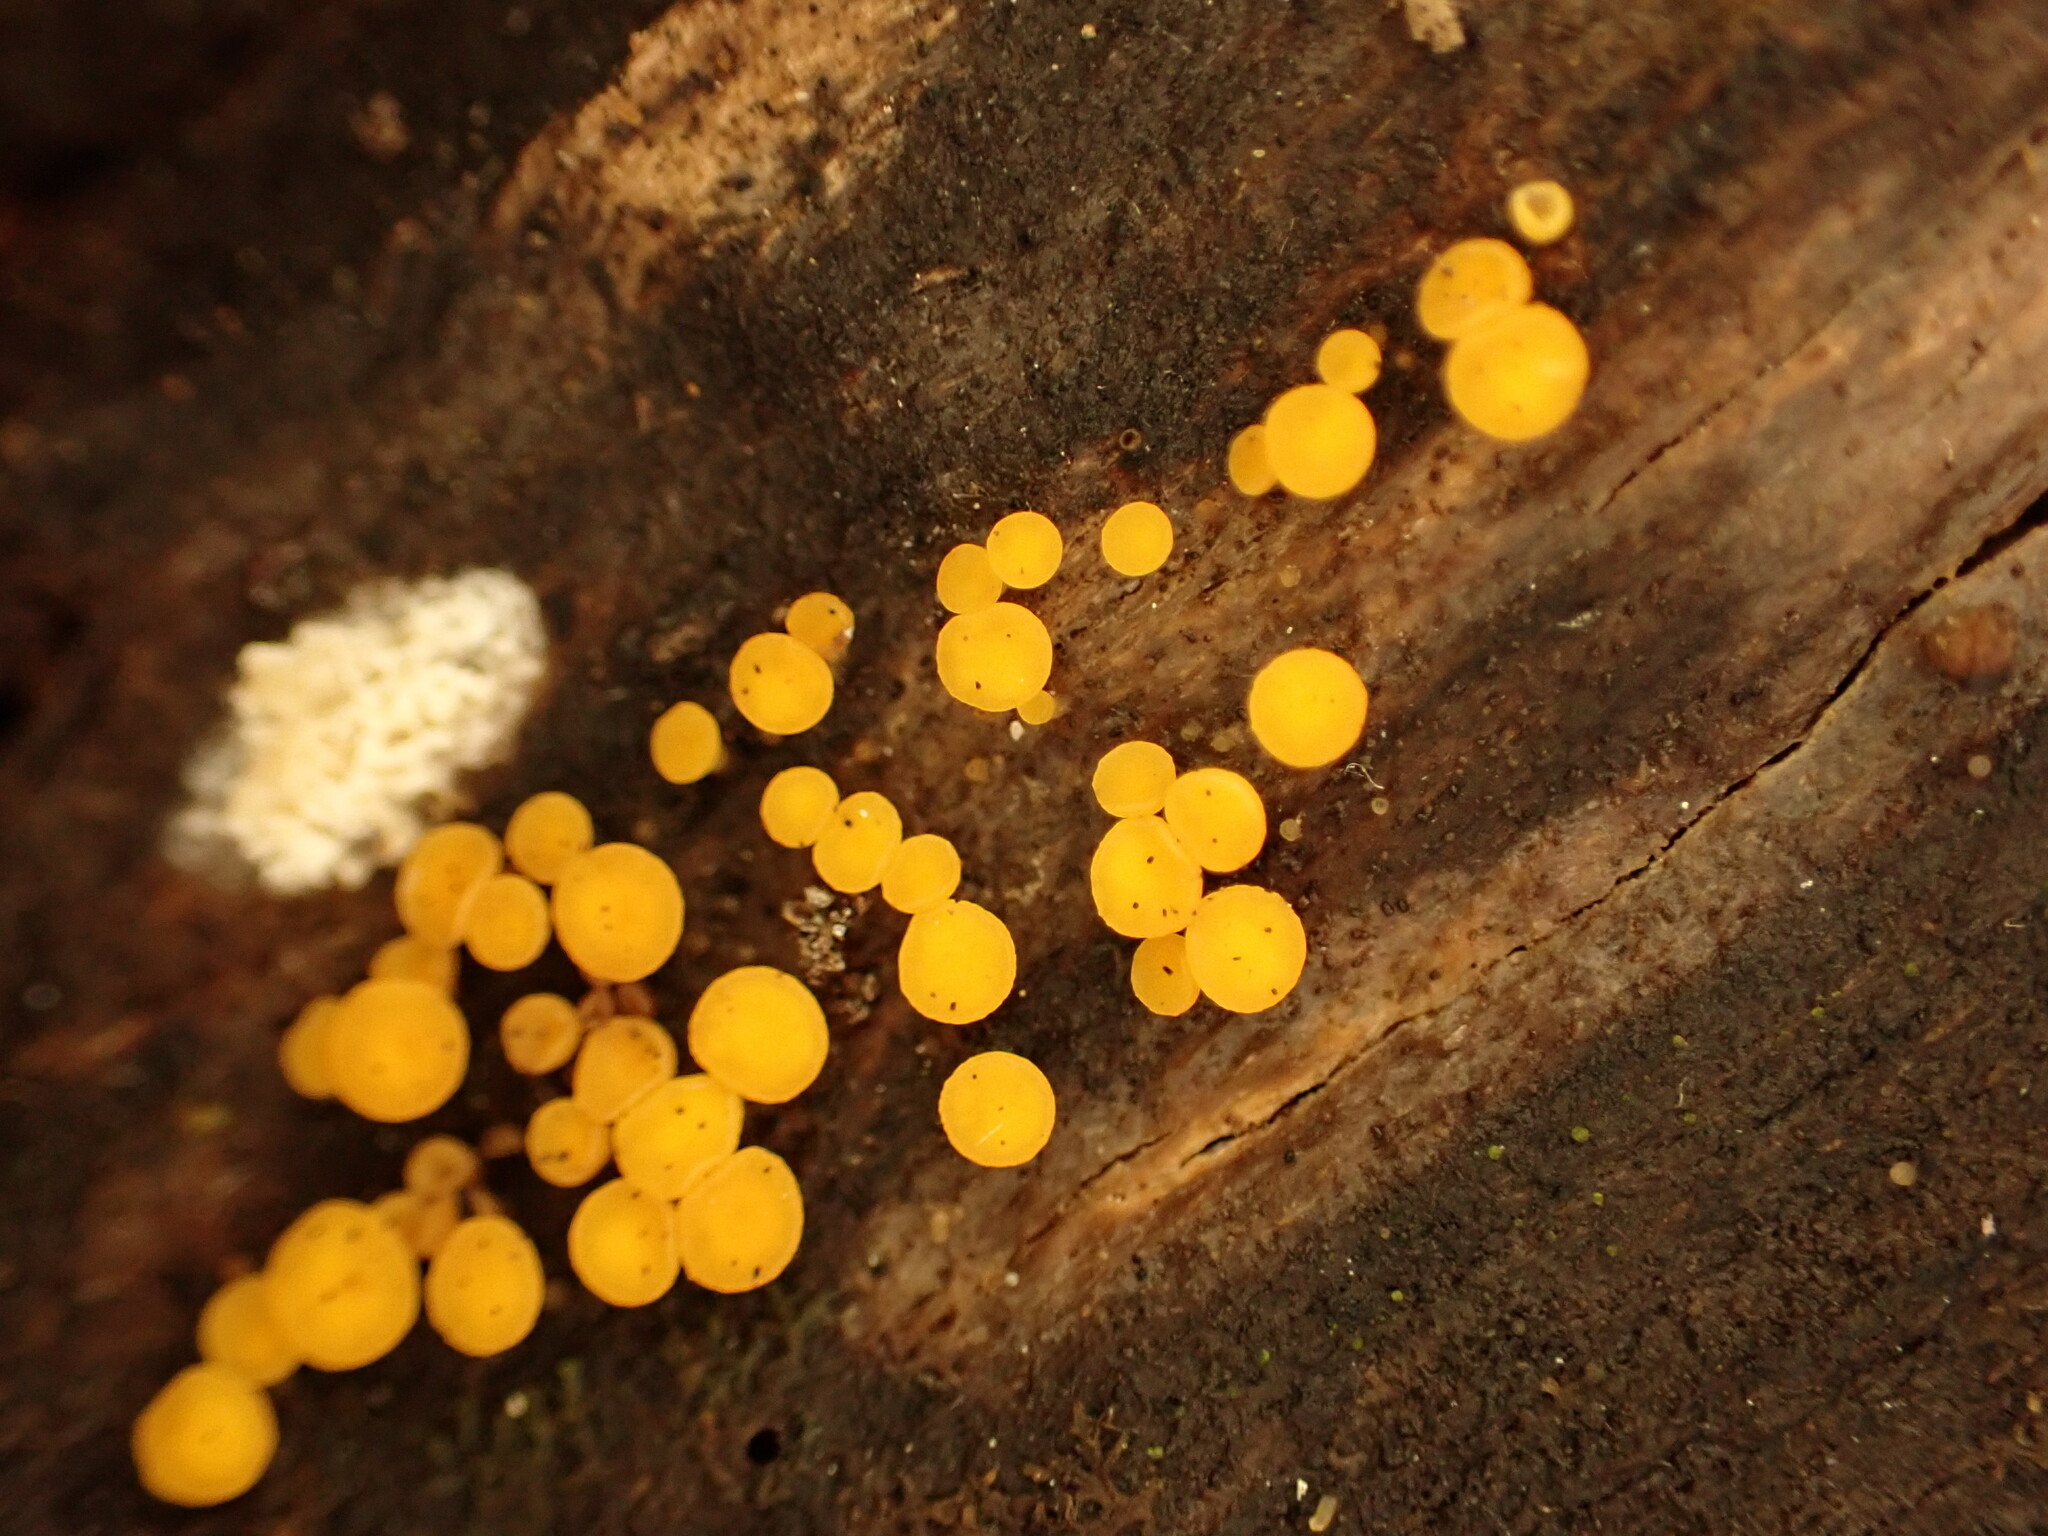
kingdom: Fungi
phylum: Ascomycota
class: Leotiomycetes
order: Helotiales
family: Pezizellaceae
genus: Calycina
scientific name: Calycina citrina
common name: Yellow fairy cups
